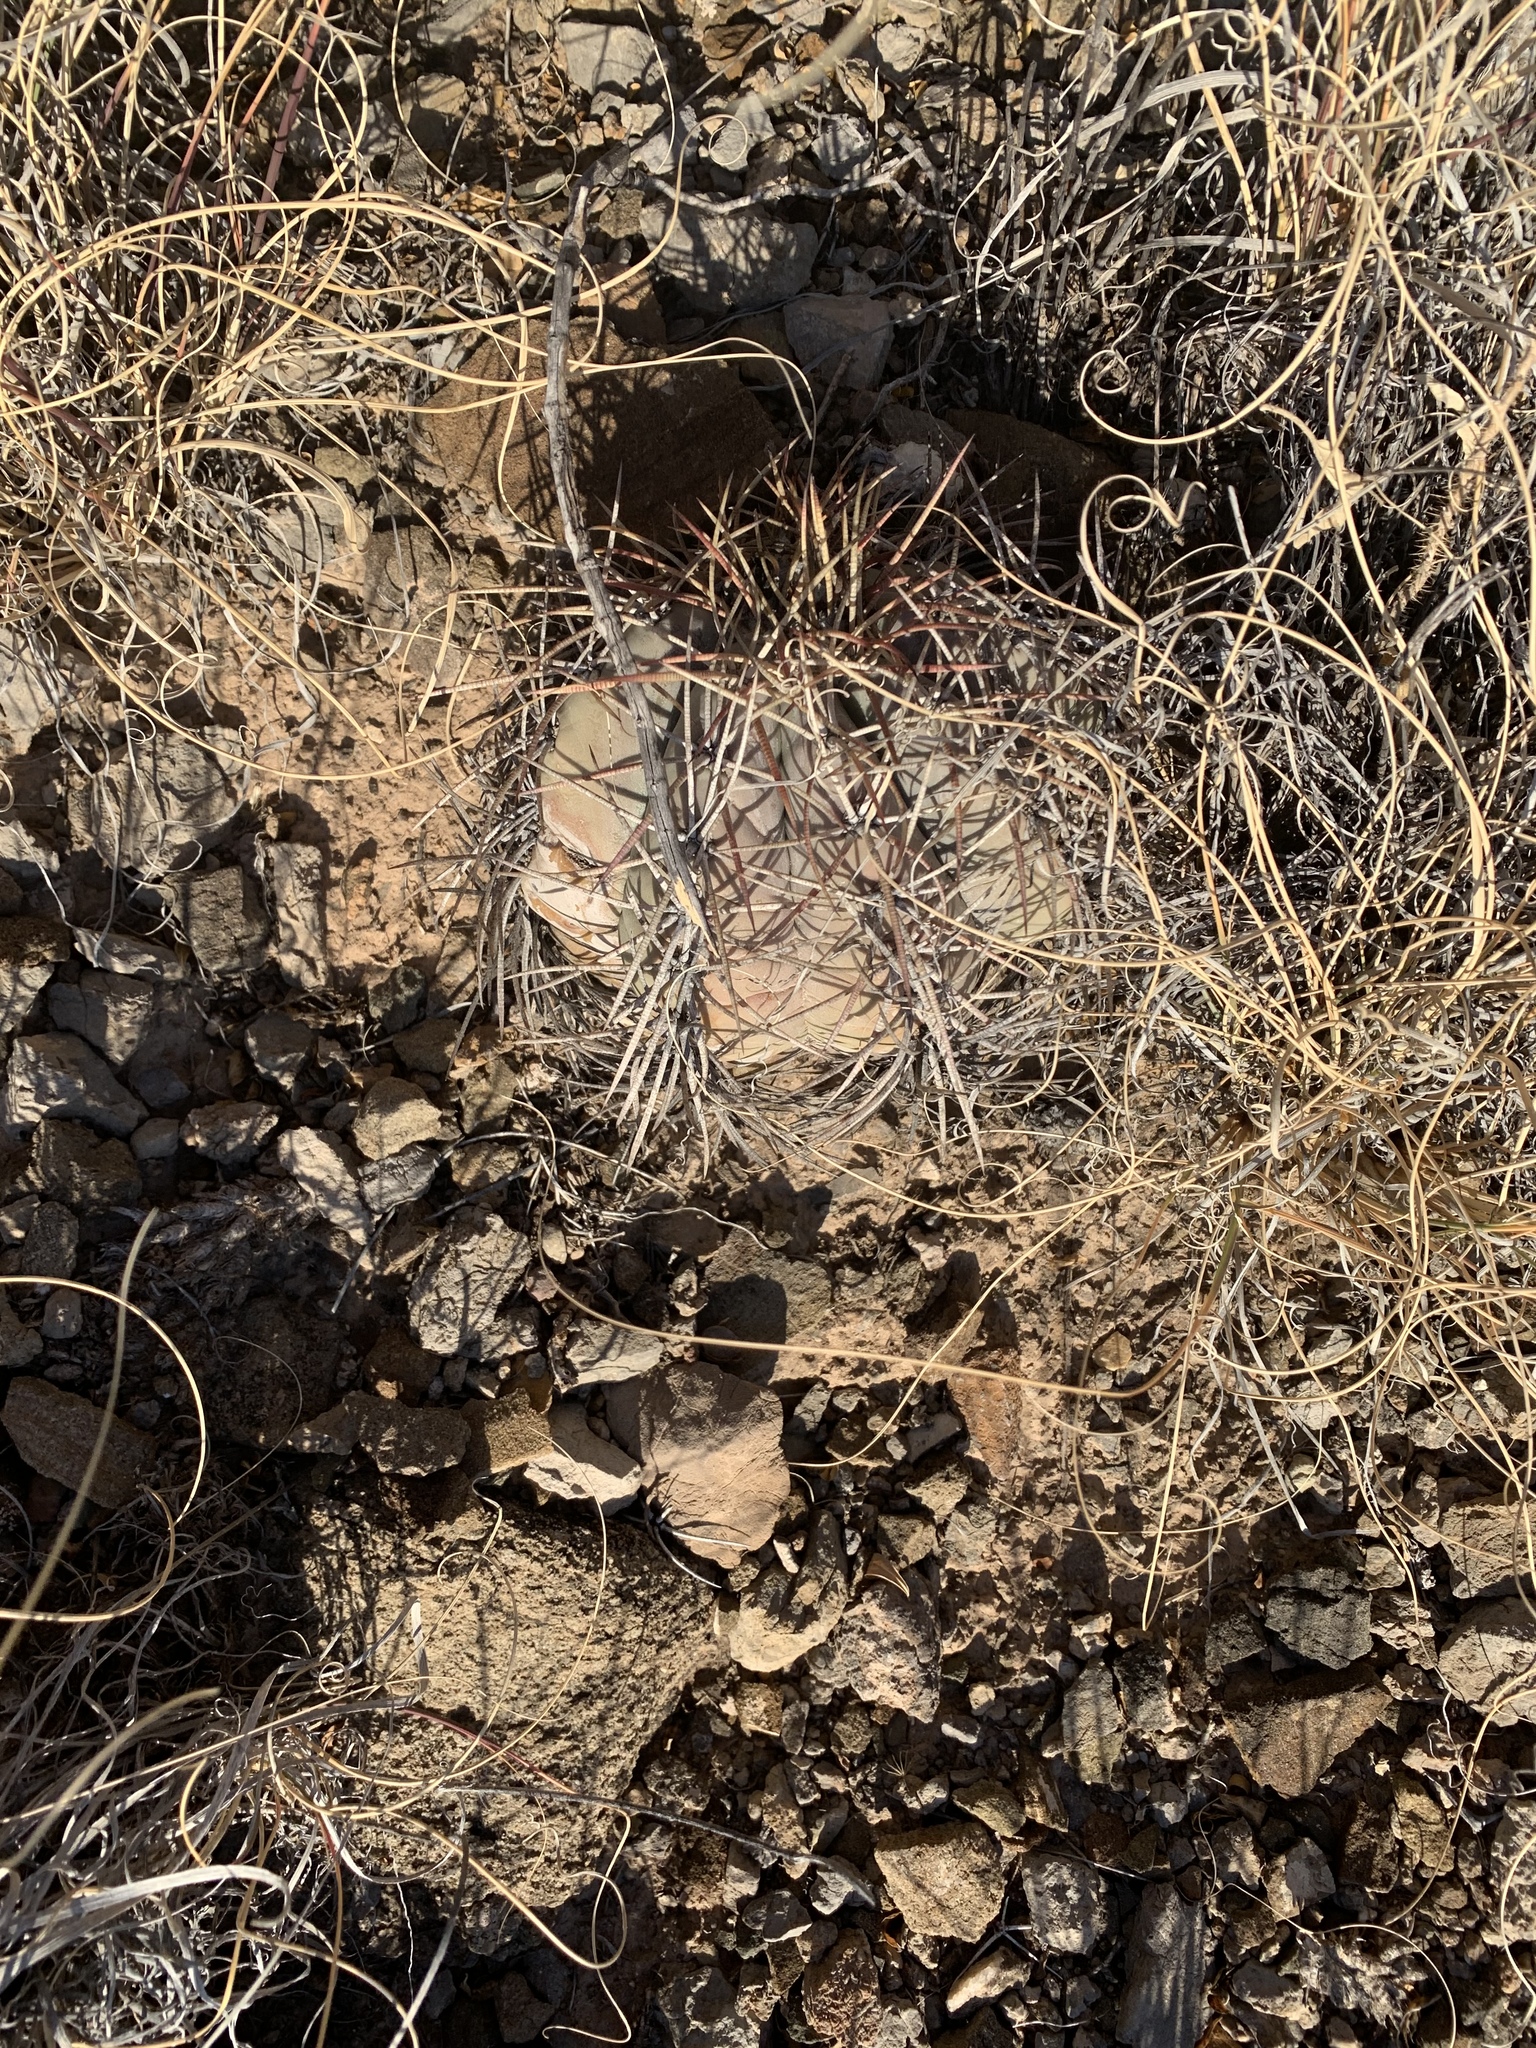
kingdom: Plantae
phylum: Tracheophyta
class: Magnoliopsida
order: Caryophyllales
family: Cactaceae
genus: Echinocactus
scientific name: Echinocactus horizonthalonius
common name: Devilshead
